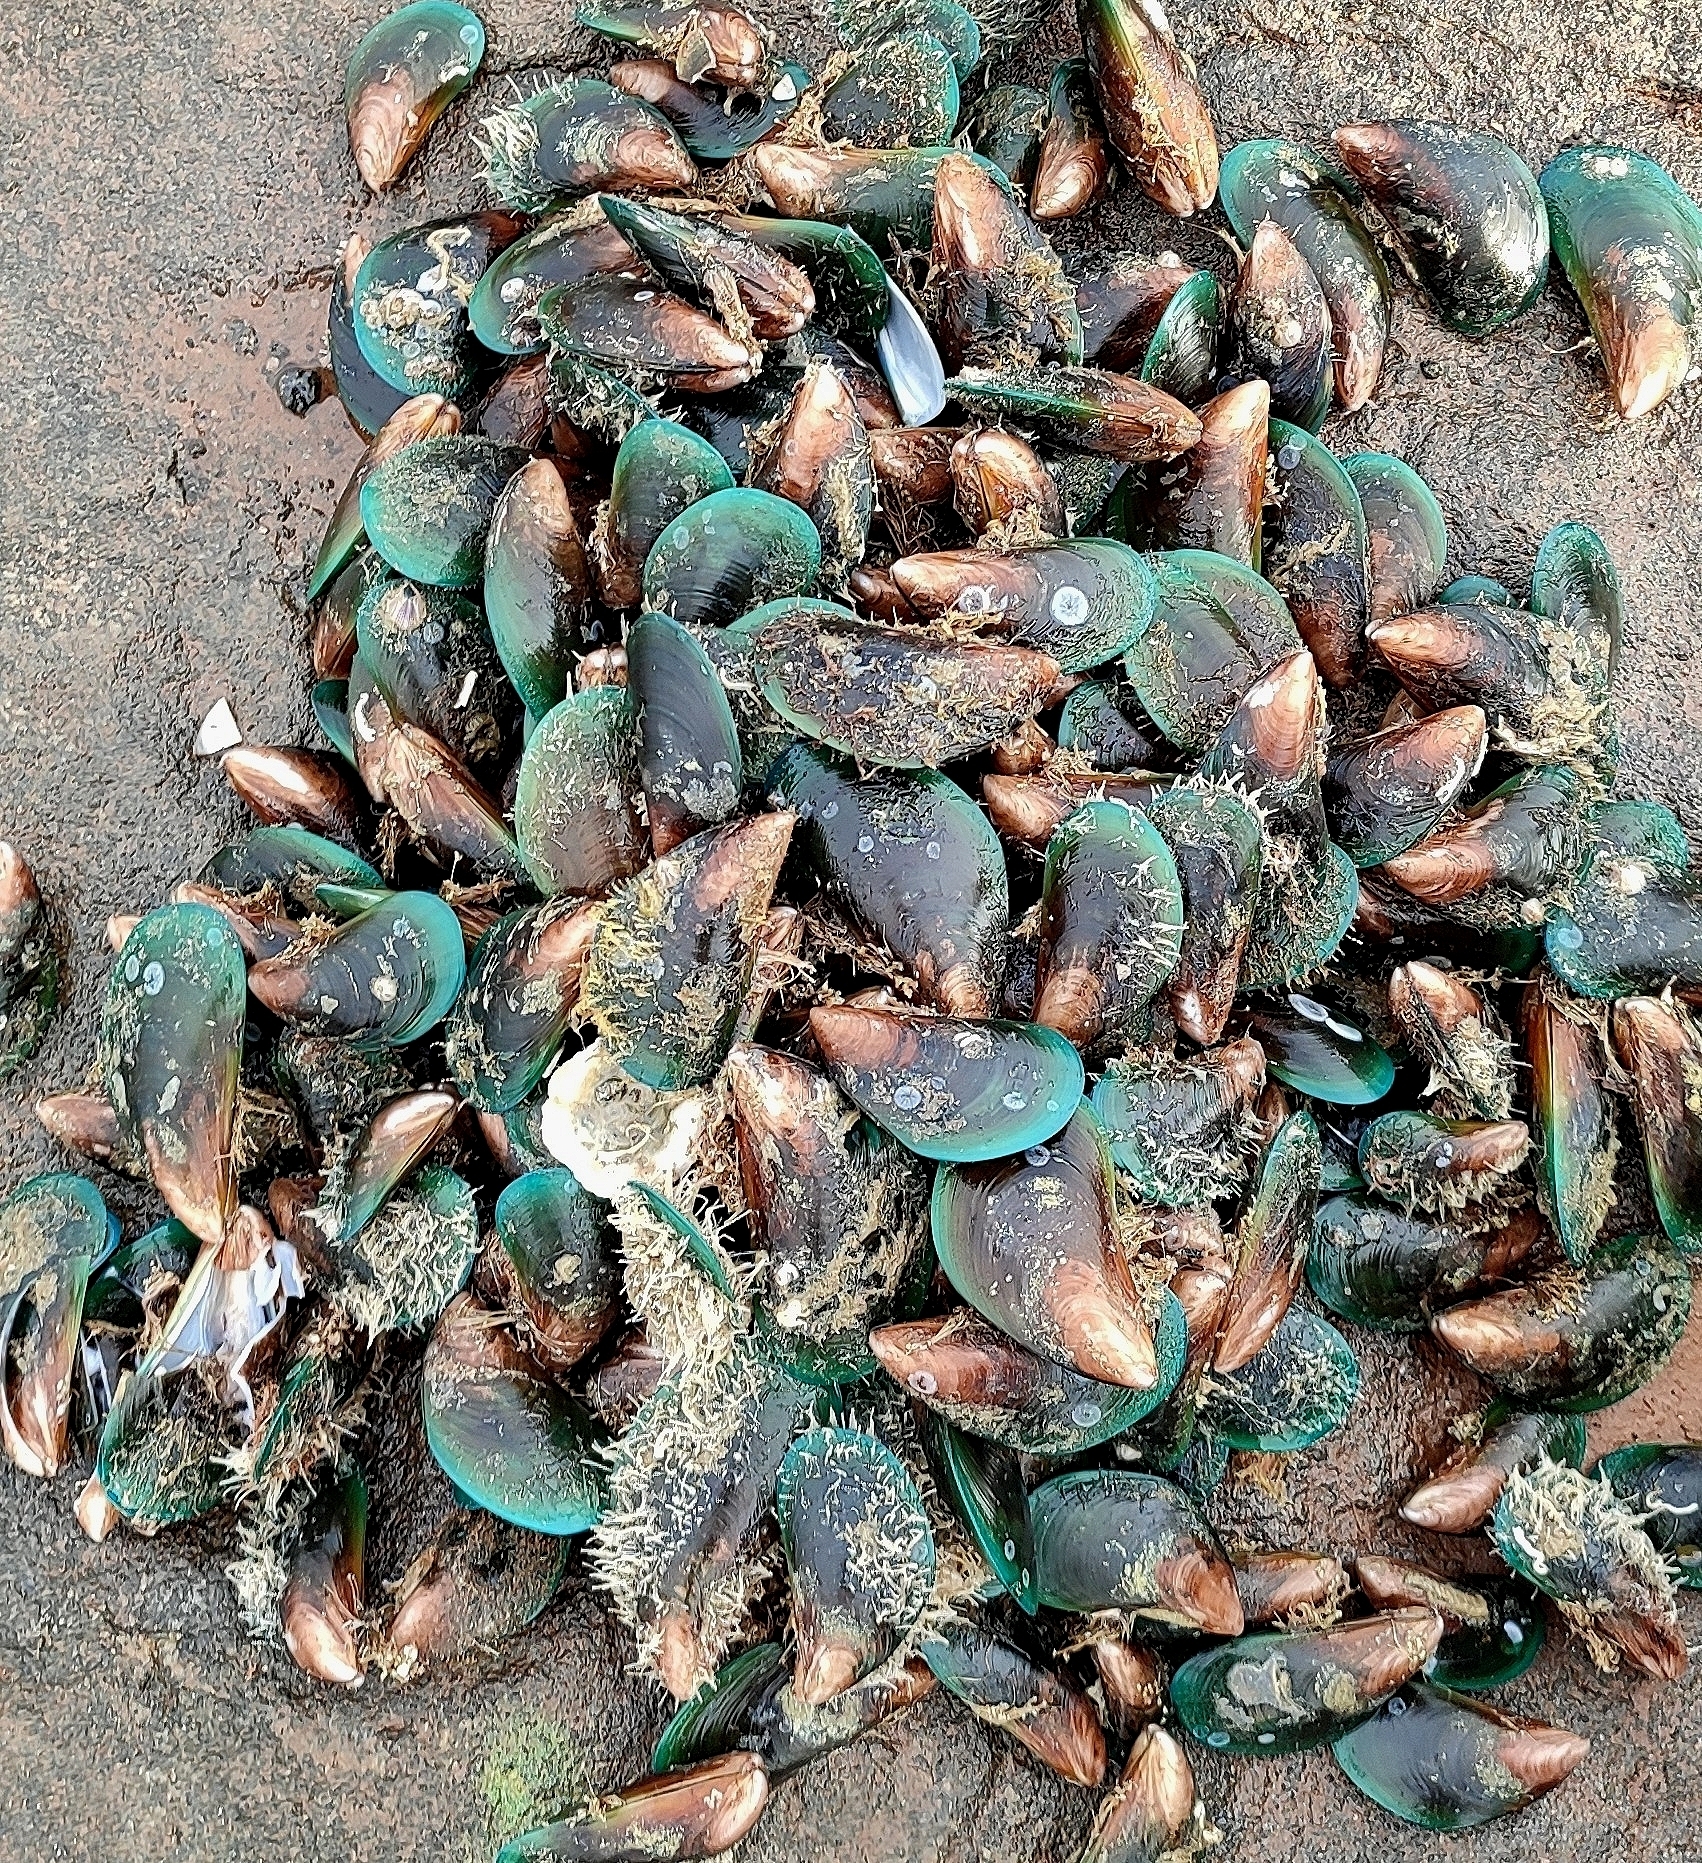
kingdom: Animalia
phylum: Mollusca
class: Bivalvia
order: Mytilida
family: Mytilidae
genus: Perna
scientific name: Perna viridis
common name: Green mussel
